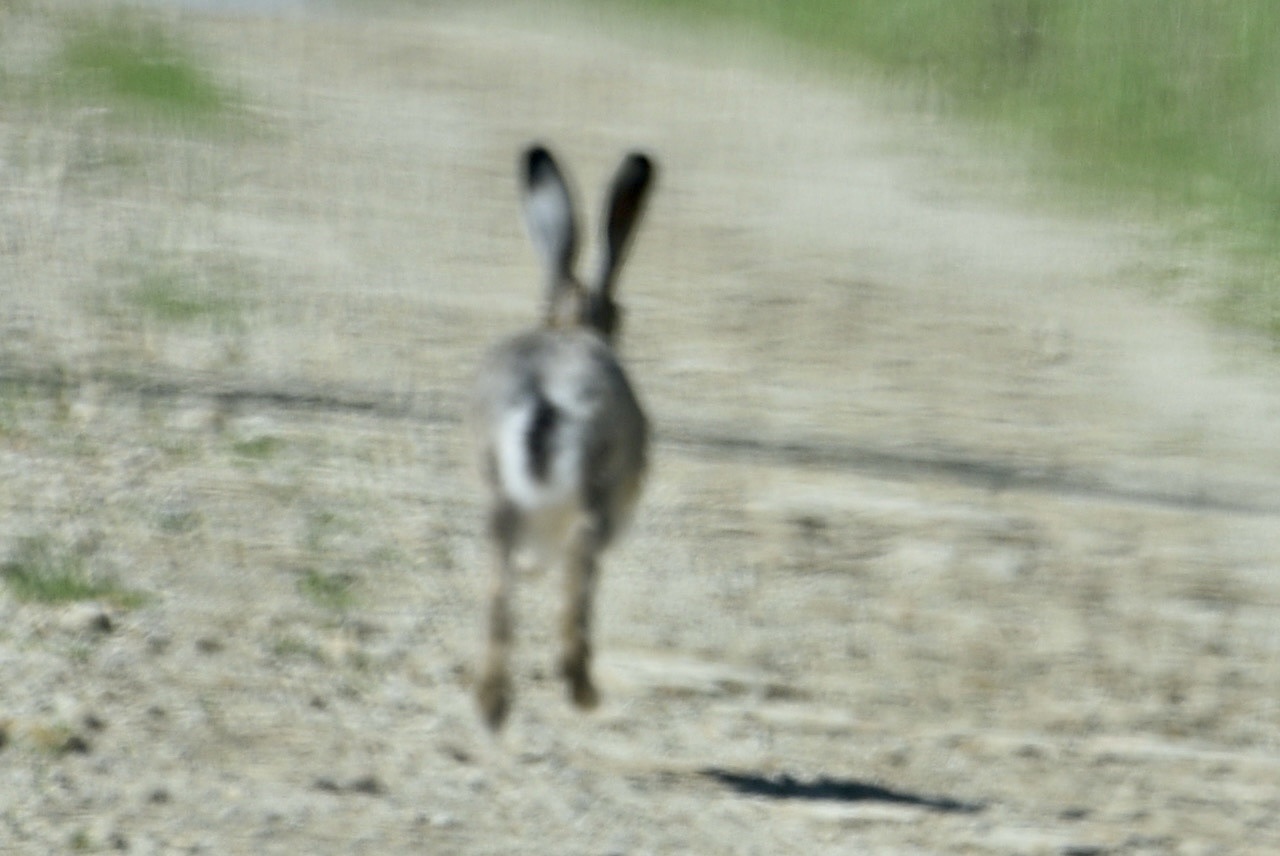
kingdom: Animalia
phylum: Chordata
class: Mammalia
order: Lagomorpha
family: Leporidae
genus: Lepus
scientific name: Lepus europaeus
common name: European hare
